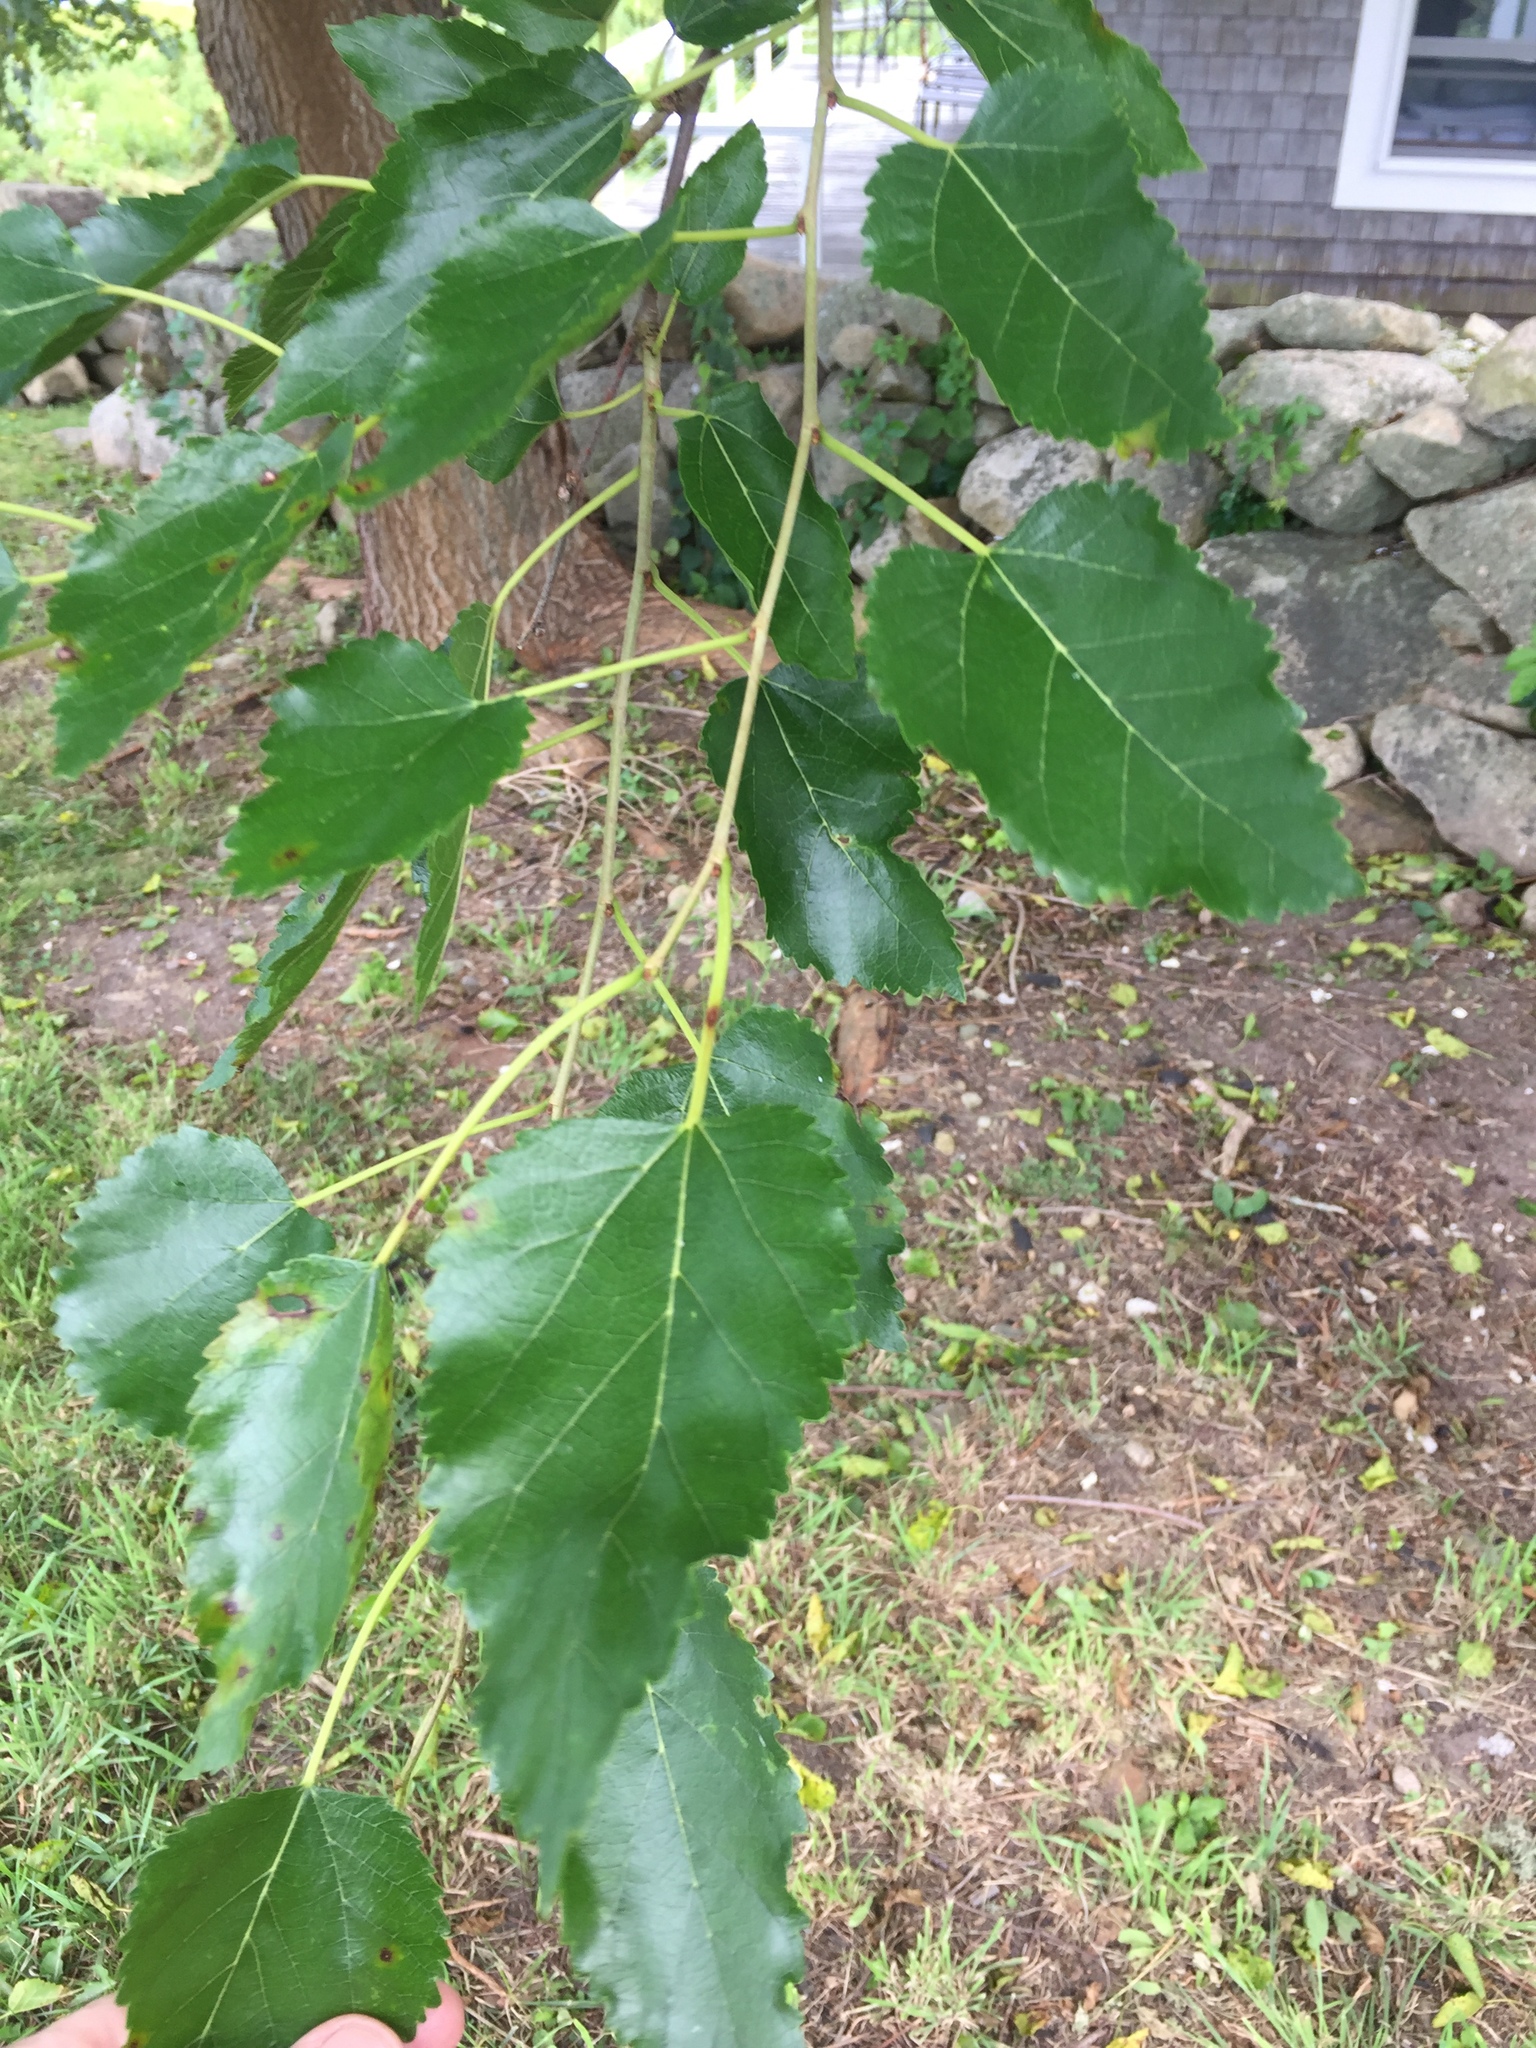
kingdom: Plantae
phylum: Tracheophyta
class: Magnoliopsida
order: Rosales
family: Moraceae
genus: Morus
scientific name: Morus alba
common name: White mulberry
